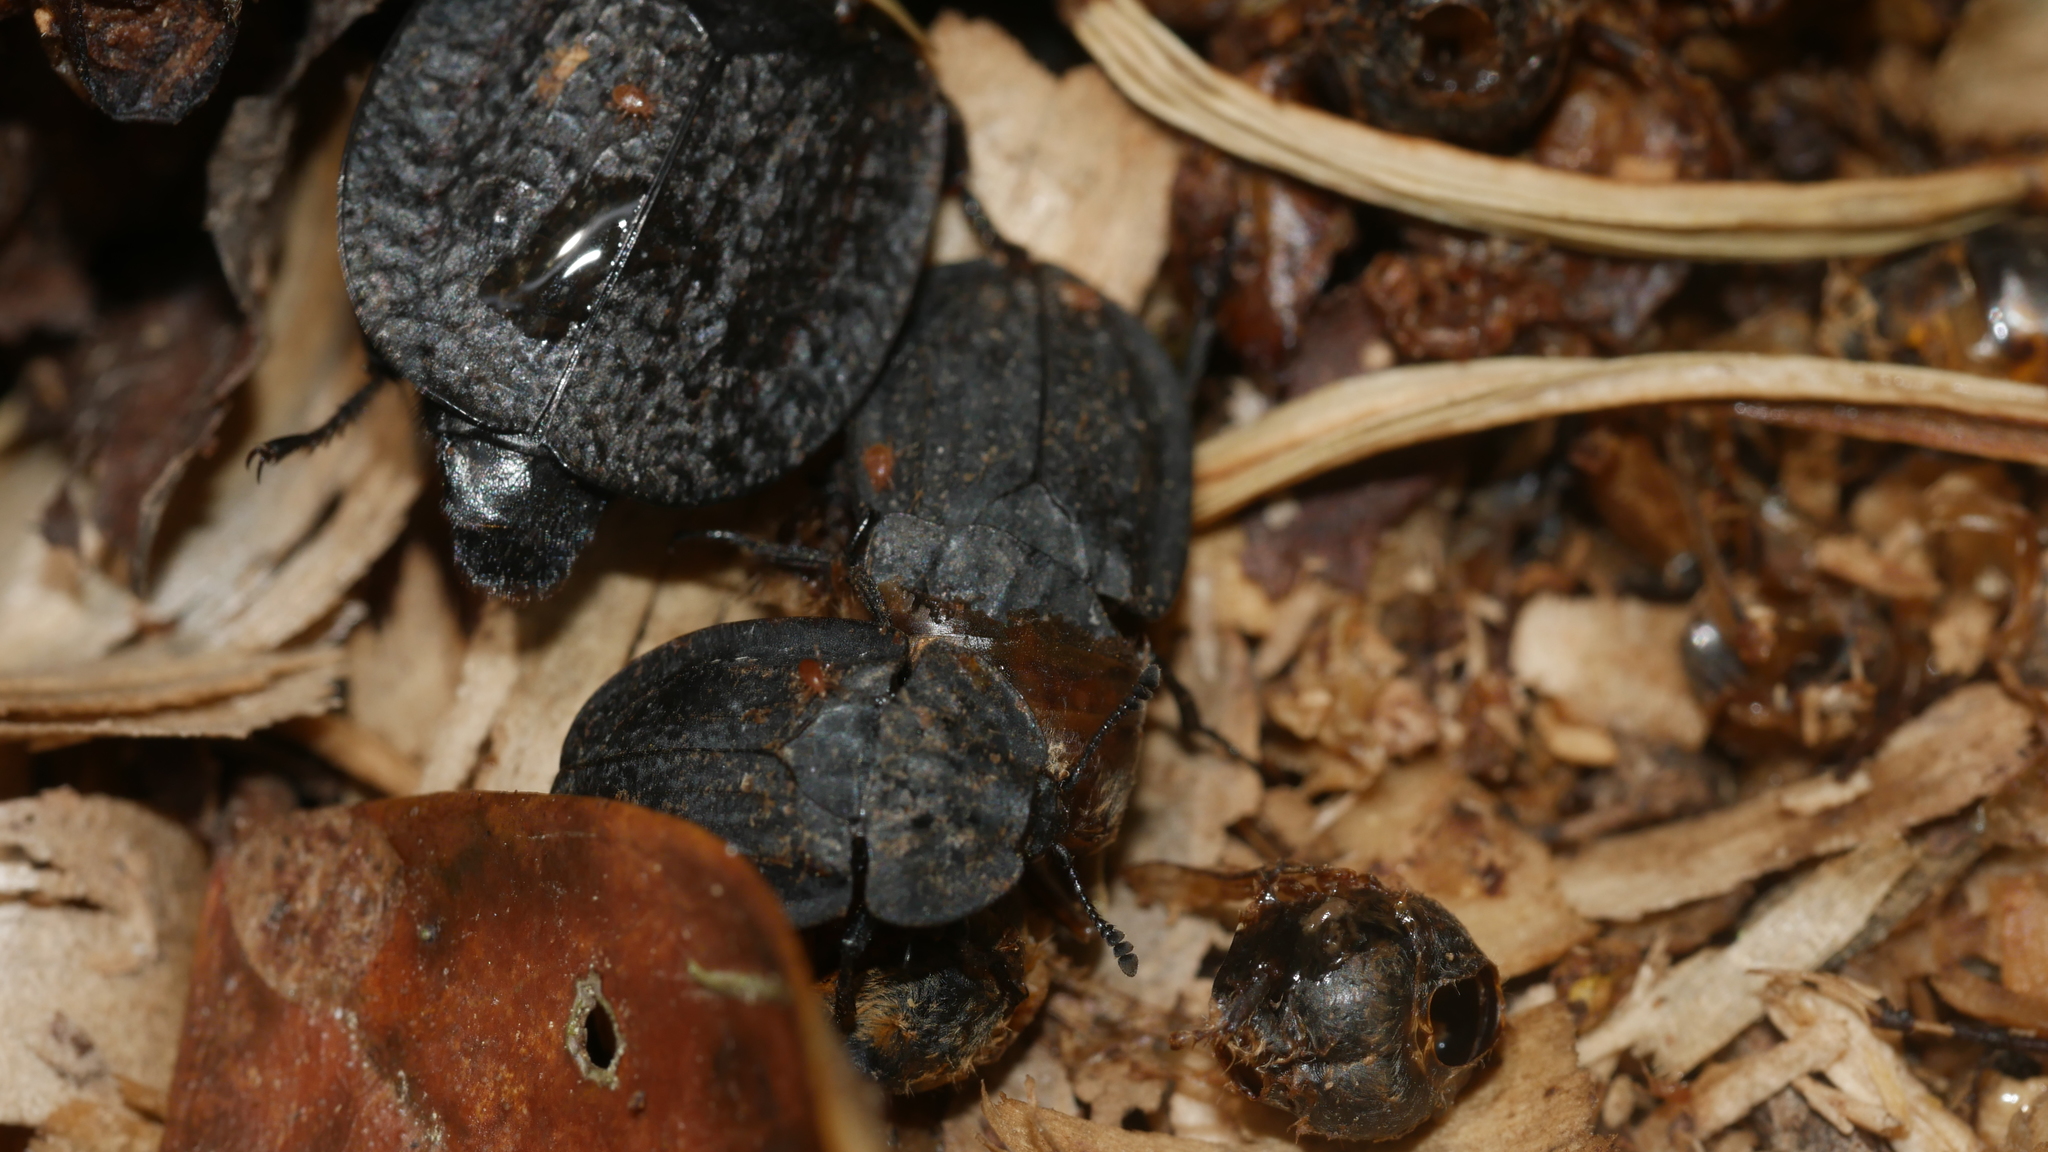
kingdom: Animalia
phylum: Arthropoda
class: Insecta
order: Coleoptera
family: Staphylinidae
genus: Oiceoptoma
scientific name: Oiceoptoma inaequale
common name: Ridged carrion beetle
